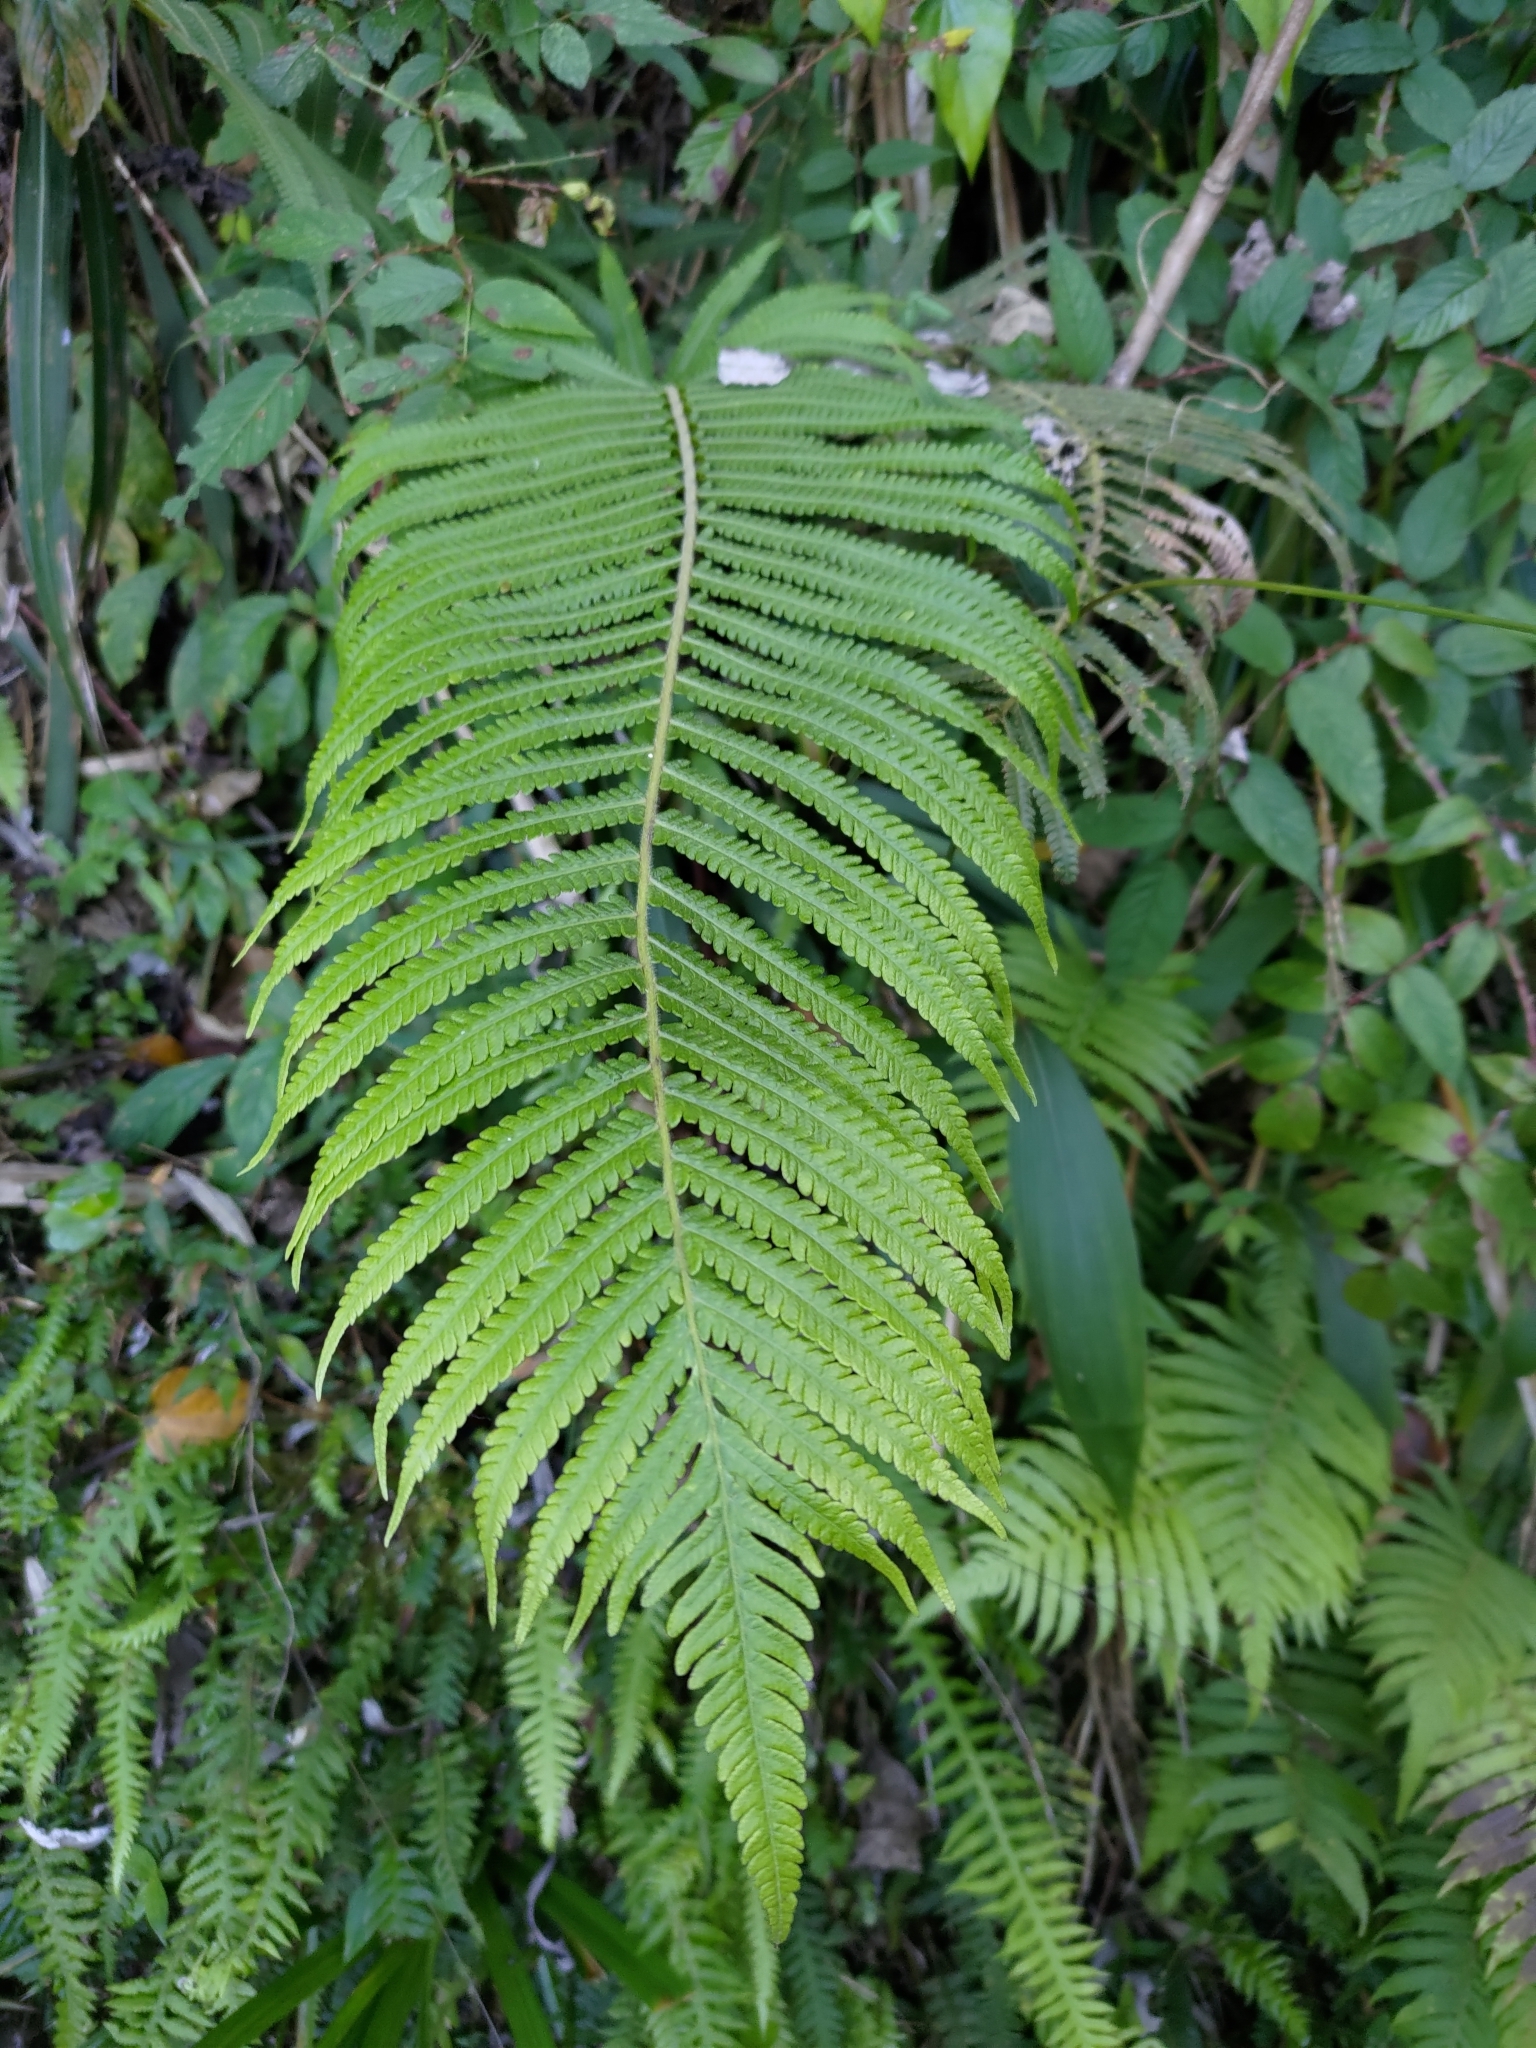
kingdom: Plantae
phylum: Tracheophyta
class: Polypodiopsida
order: Polypodiales
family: Thelypteridaceae
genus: Sphaerostephanos
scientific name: Sphaerostephanos taiwanensis
